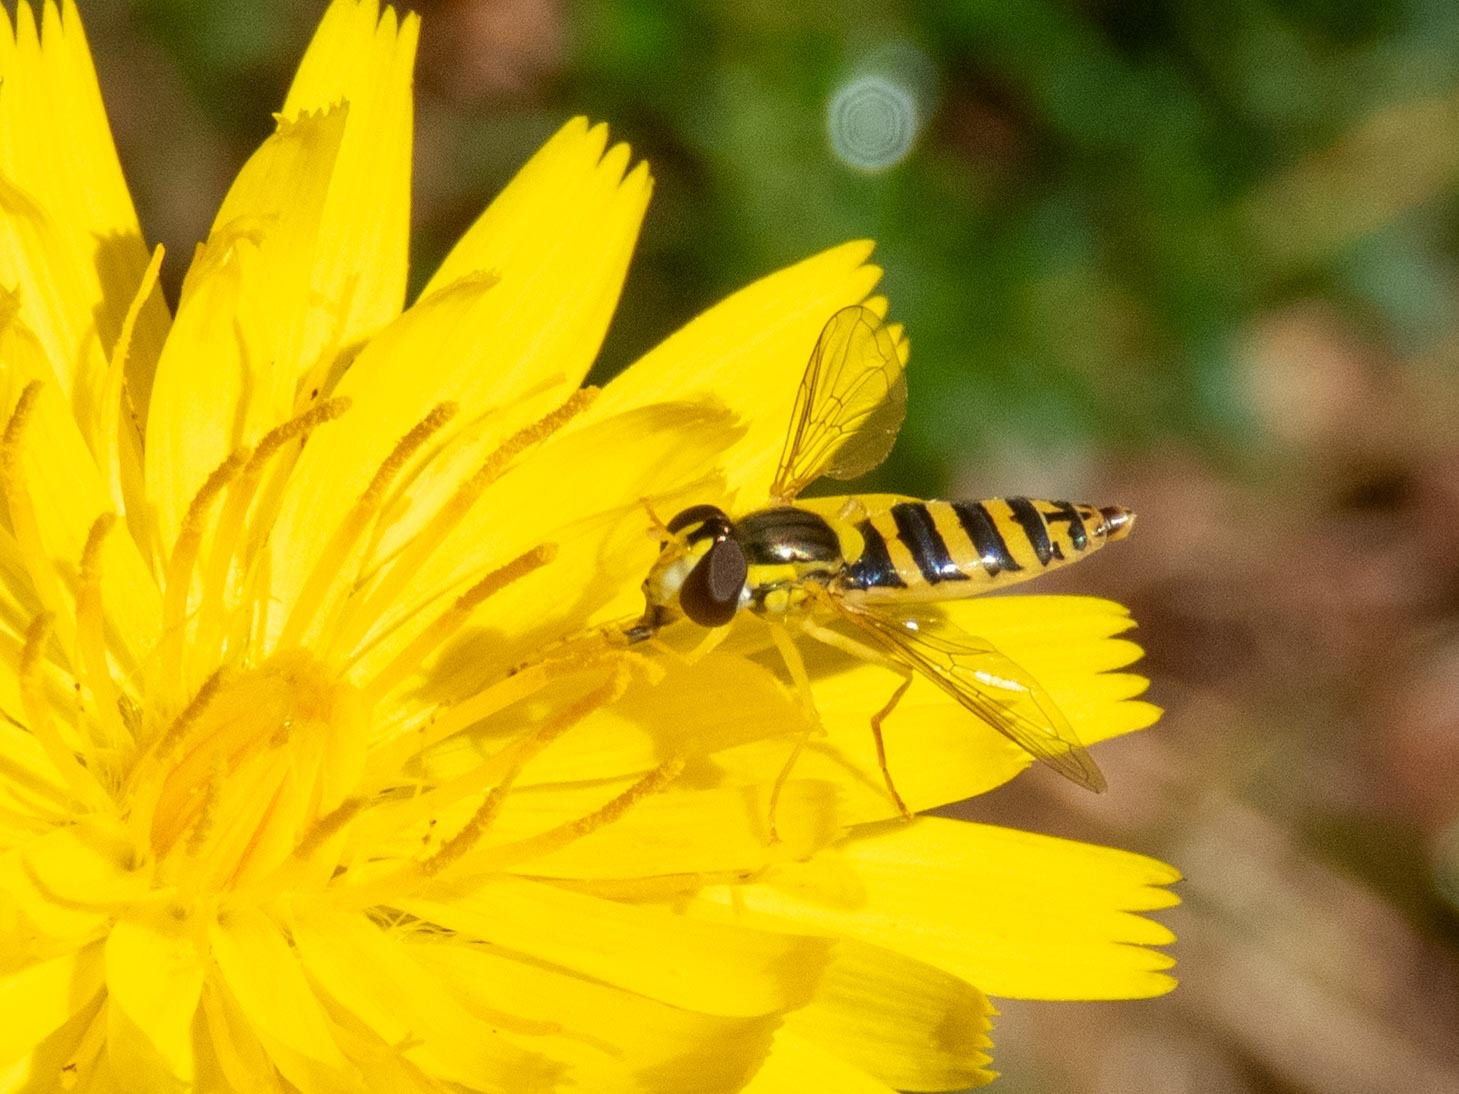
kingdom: Animalia
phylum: Arthropoda
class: Insecta
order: Diptera
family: Syrphidae
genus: Sphaerophoria
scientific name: Sphaerophoria
